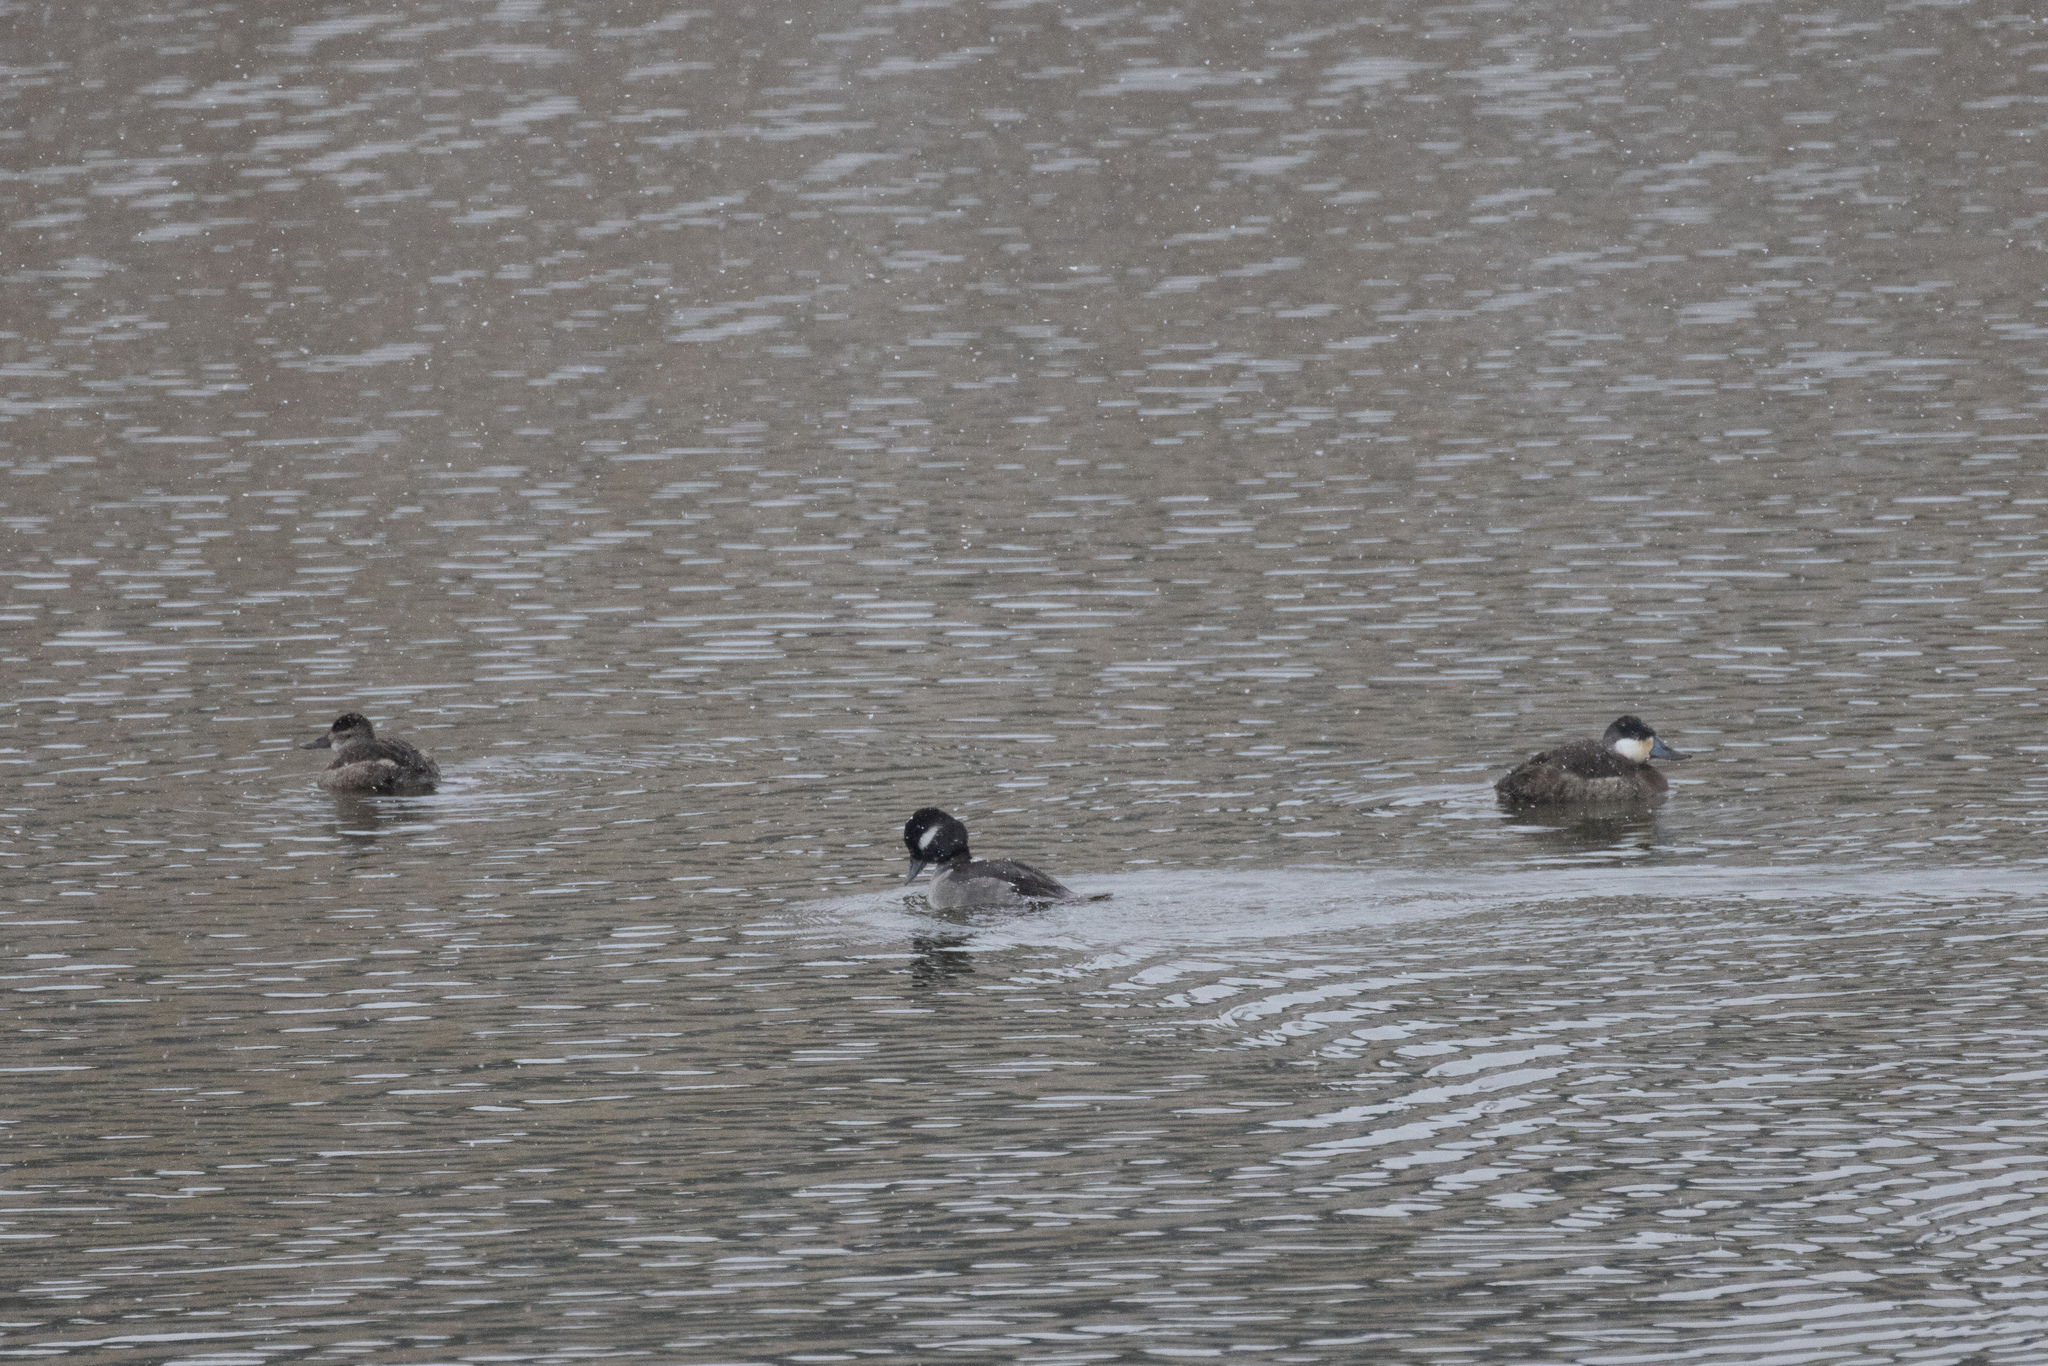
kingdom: Animalia
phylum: Chordata
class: Aves
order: Anseriformes
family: Anatidae
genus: Oxyura
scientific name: Oxyura jamaicensis
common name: Ruddy duck
